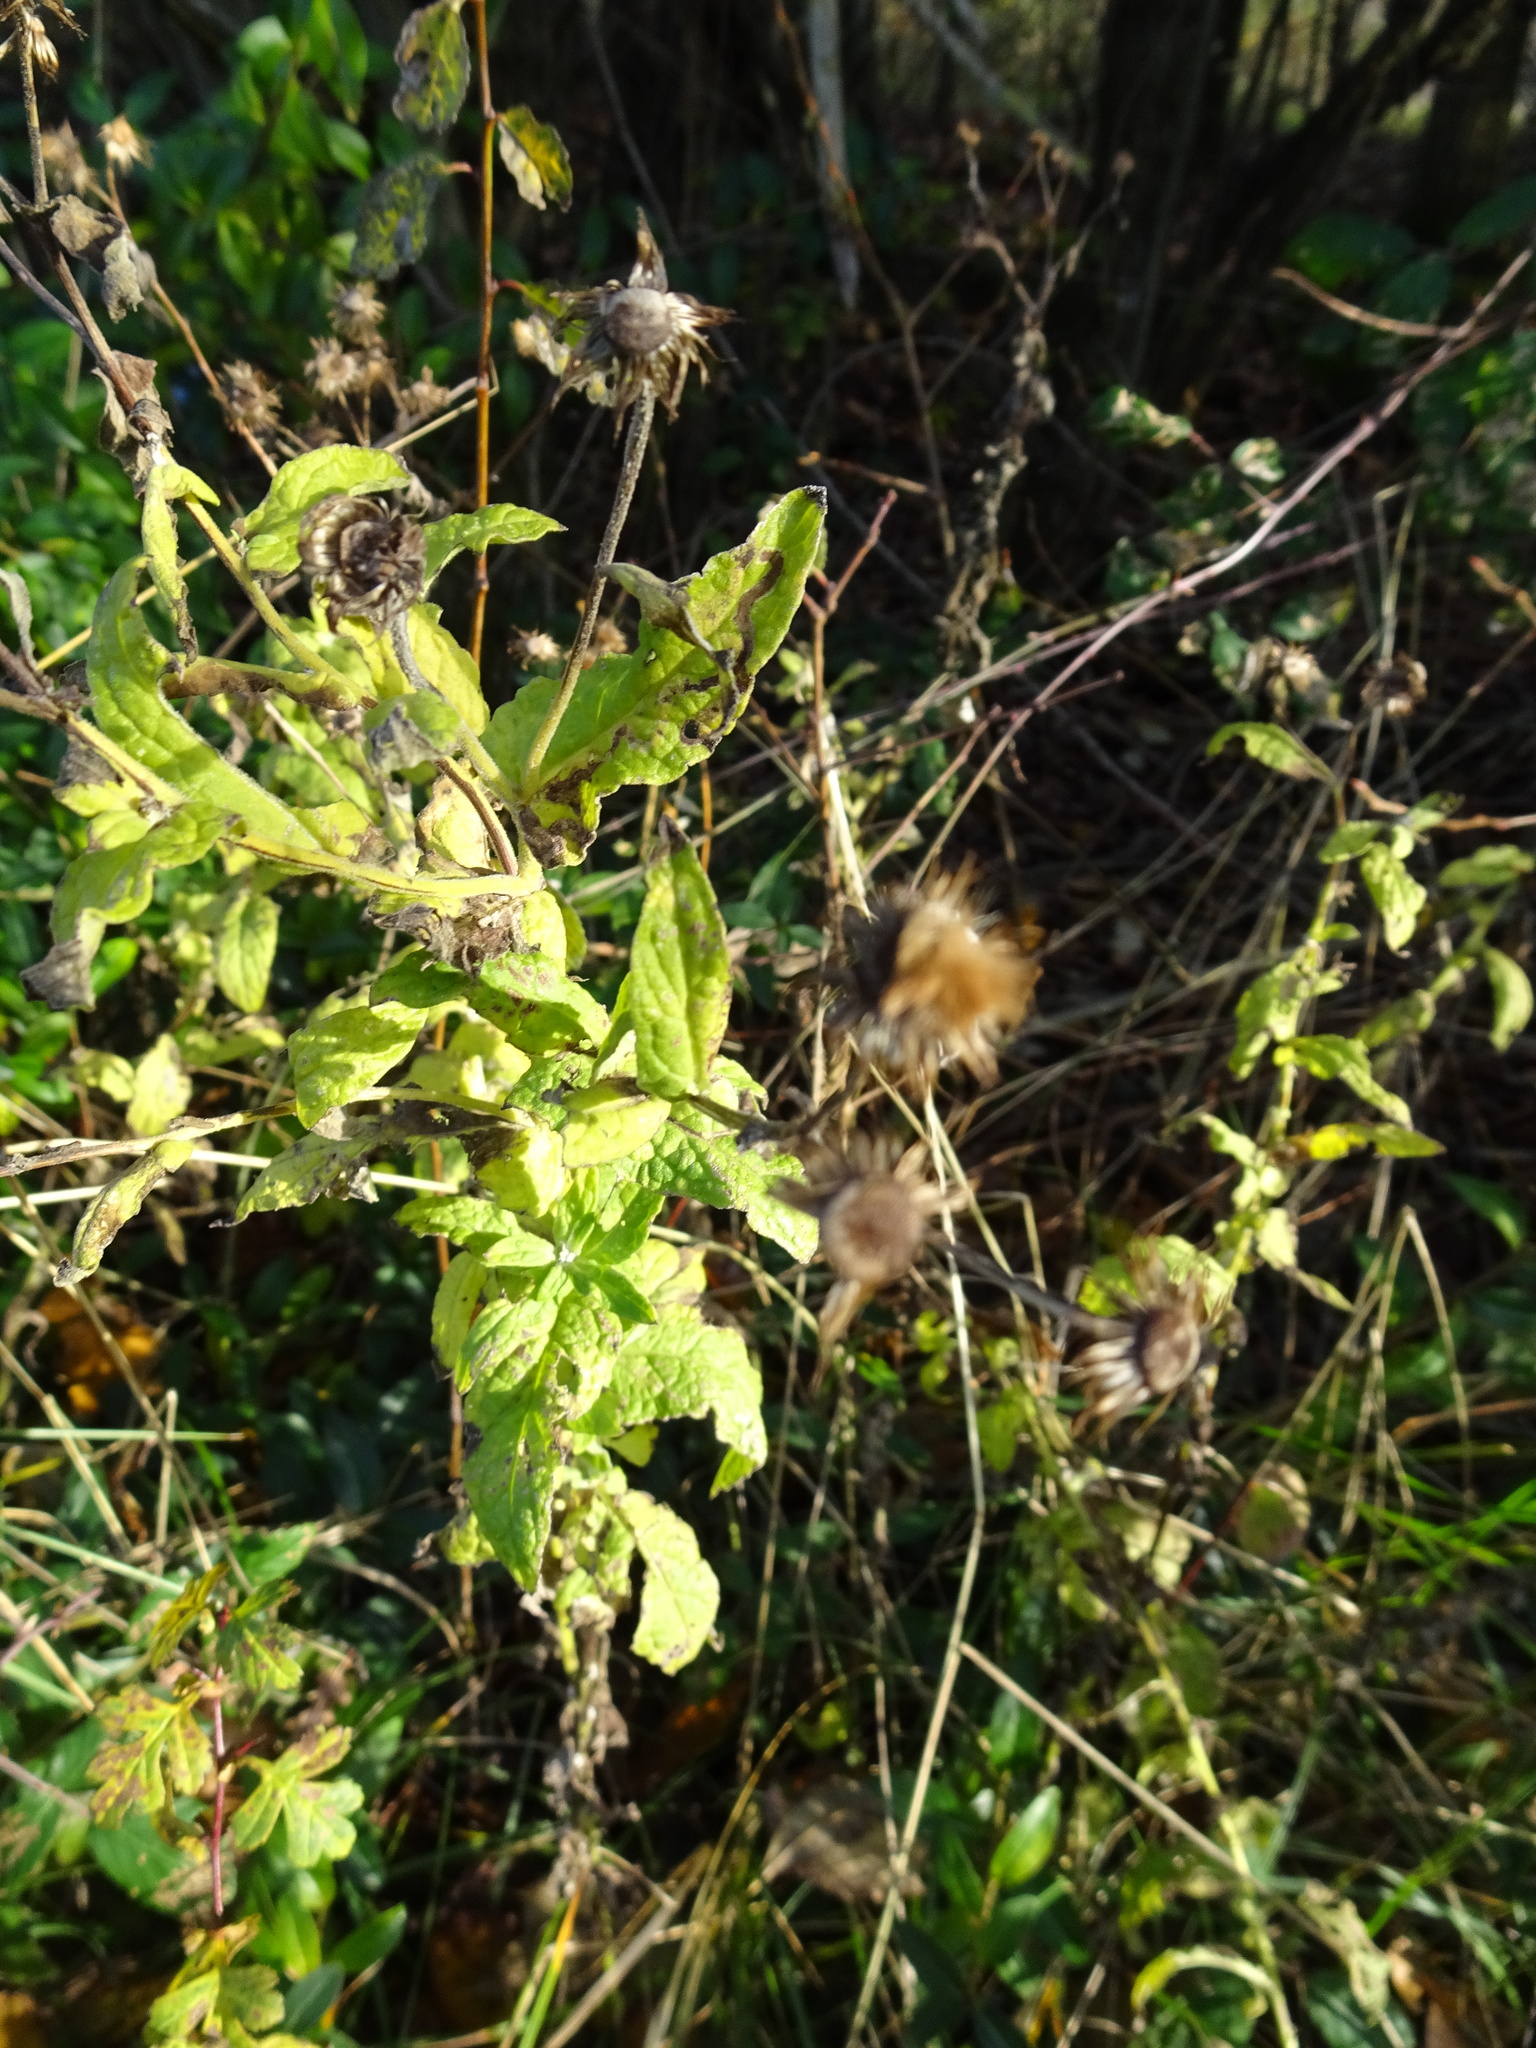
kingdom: Plantae
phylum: Tracheophyta
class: Magnoliopsida
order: Asterales
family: Asteraceae
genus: Pulicaria
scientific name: Pulicaria dysenterica
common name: Common fleabane
